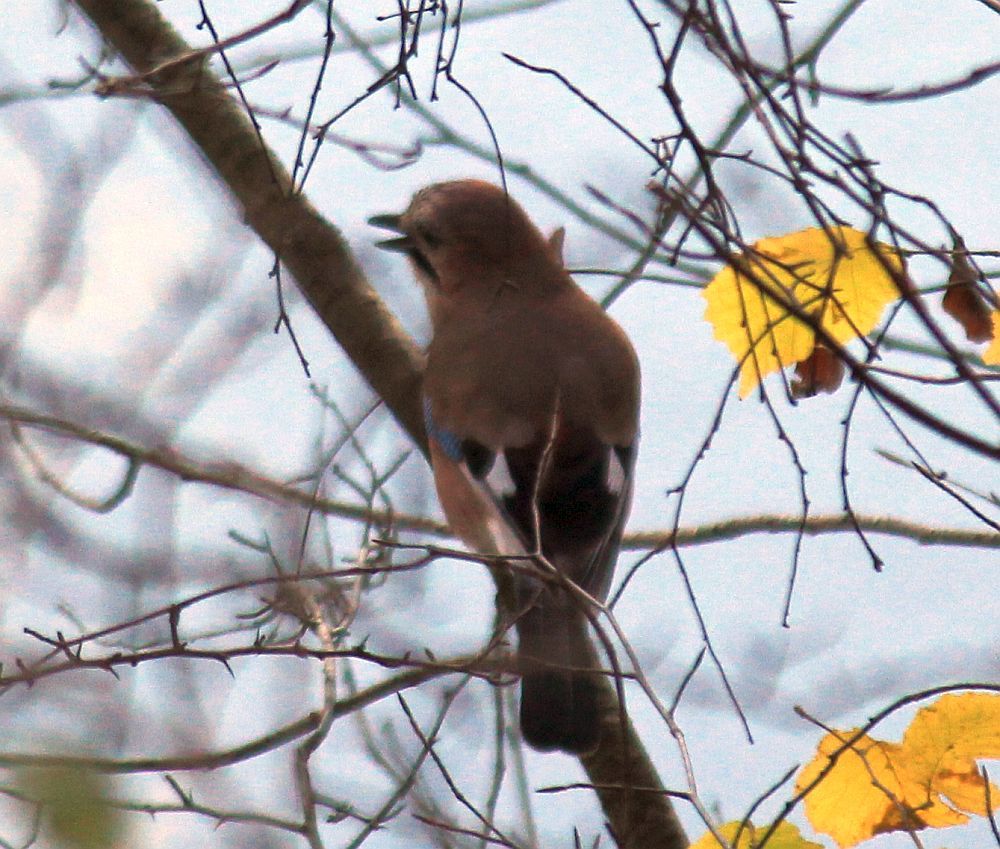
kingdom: Animalia
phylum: Chordata
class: Aves
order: Passeriformes
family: Corvidae
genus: Garrulus
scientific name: Garrulus glandarius
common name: Eurasian jay
